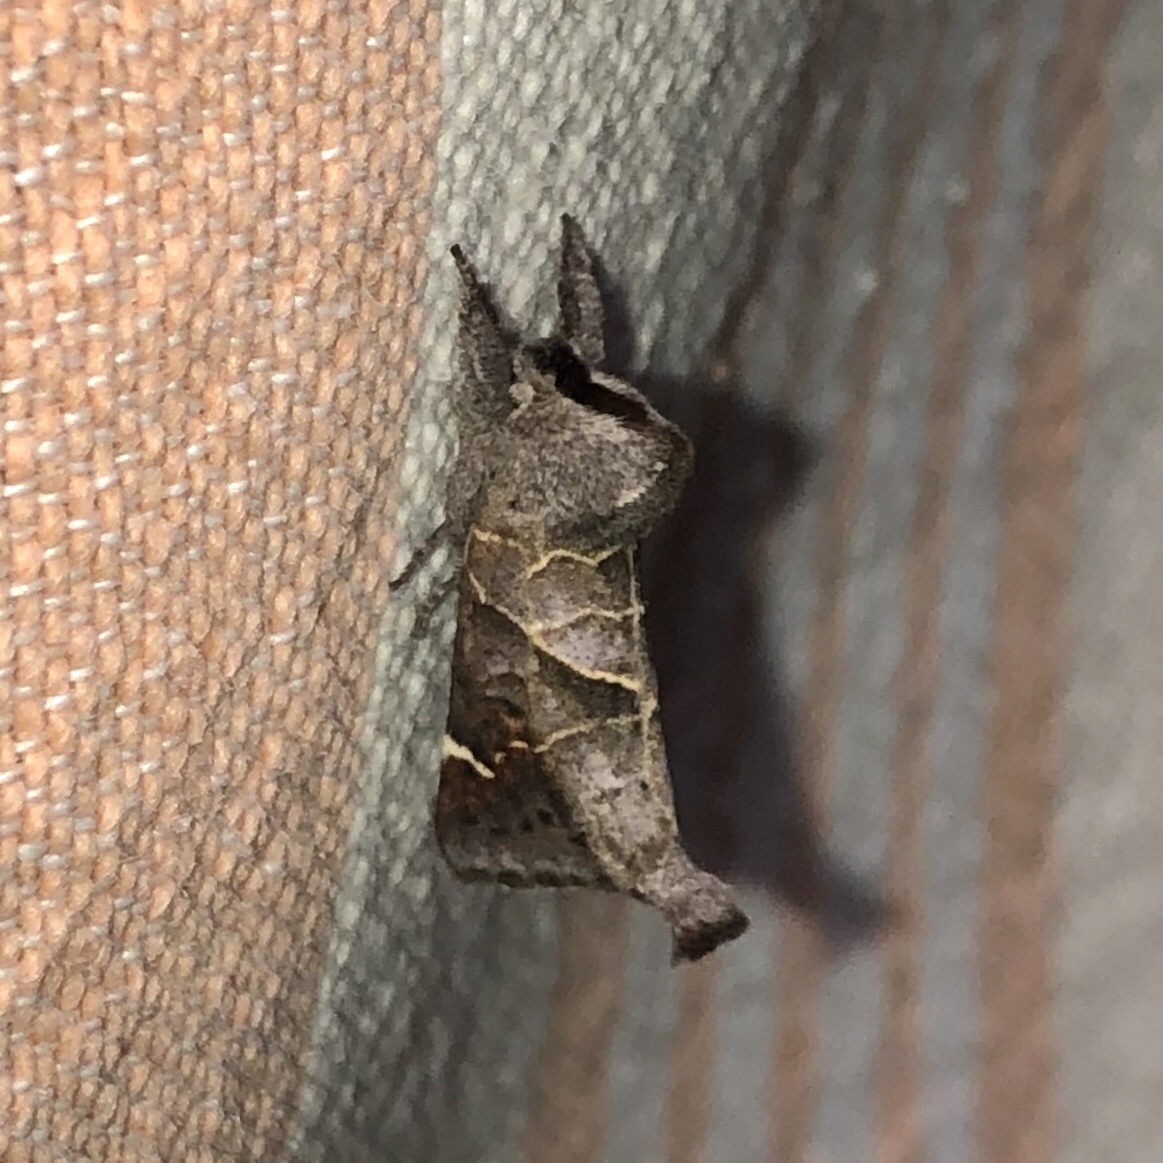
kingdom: Animalia
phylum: Arthropoda
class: Insecta
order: Lepidoptera
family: Notodontidae
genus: Clostera
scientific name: Clostera apicalis
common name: Apical prominent
